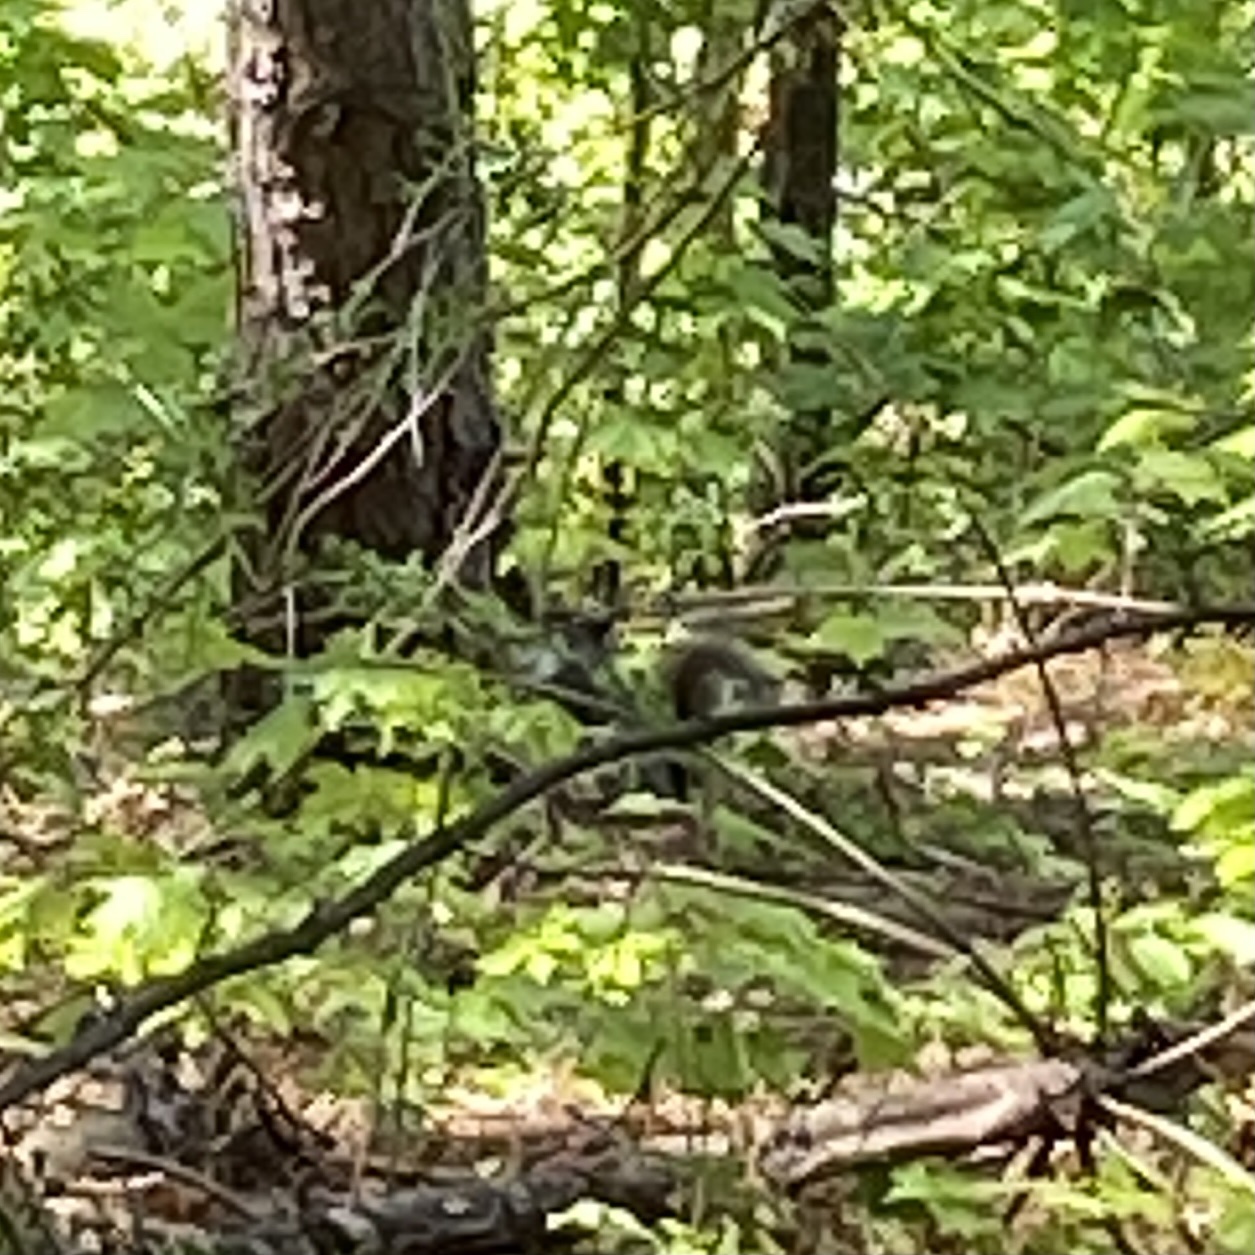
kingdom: Animalia
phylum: Chordata
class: Mammalia
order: Rodentia
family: Sciuridae
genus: Sciurus
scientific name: Sciurus carolinensis
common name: Eastern gray squirrel
